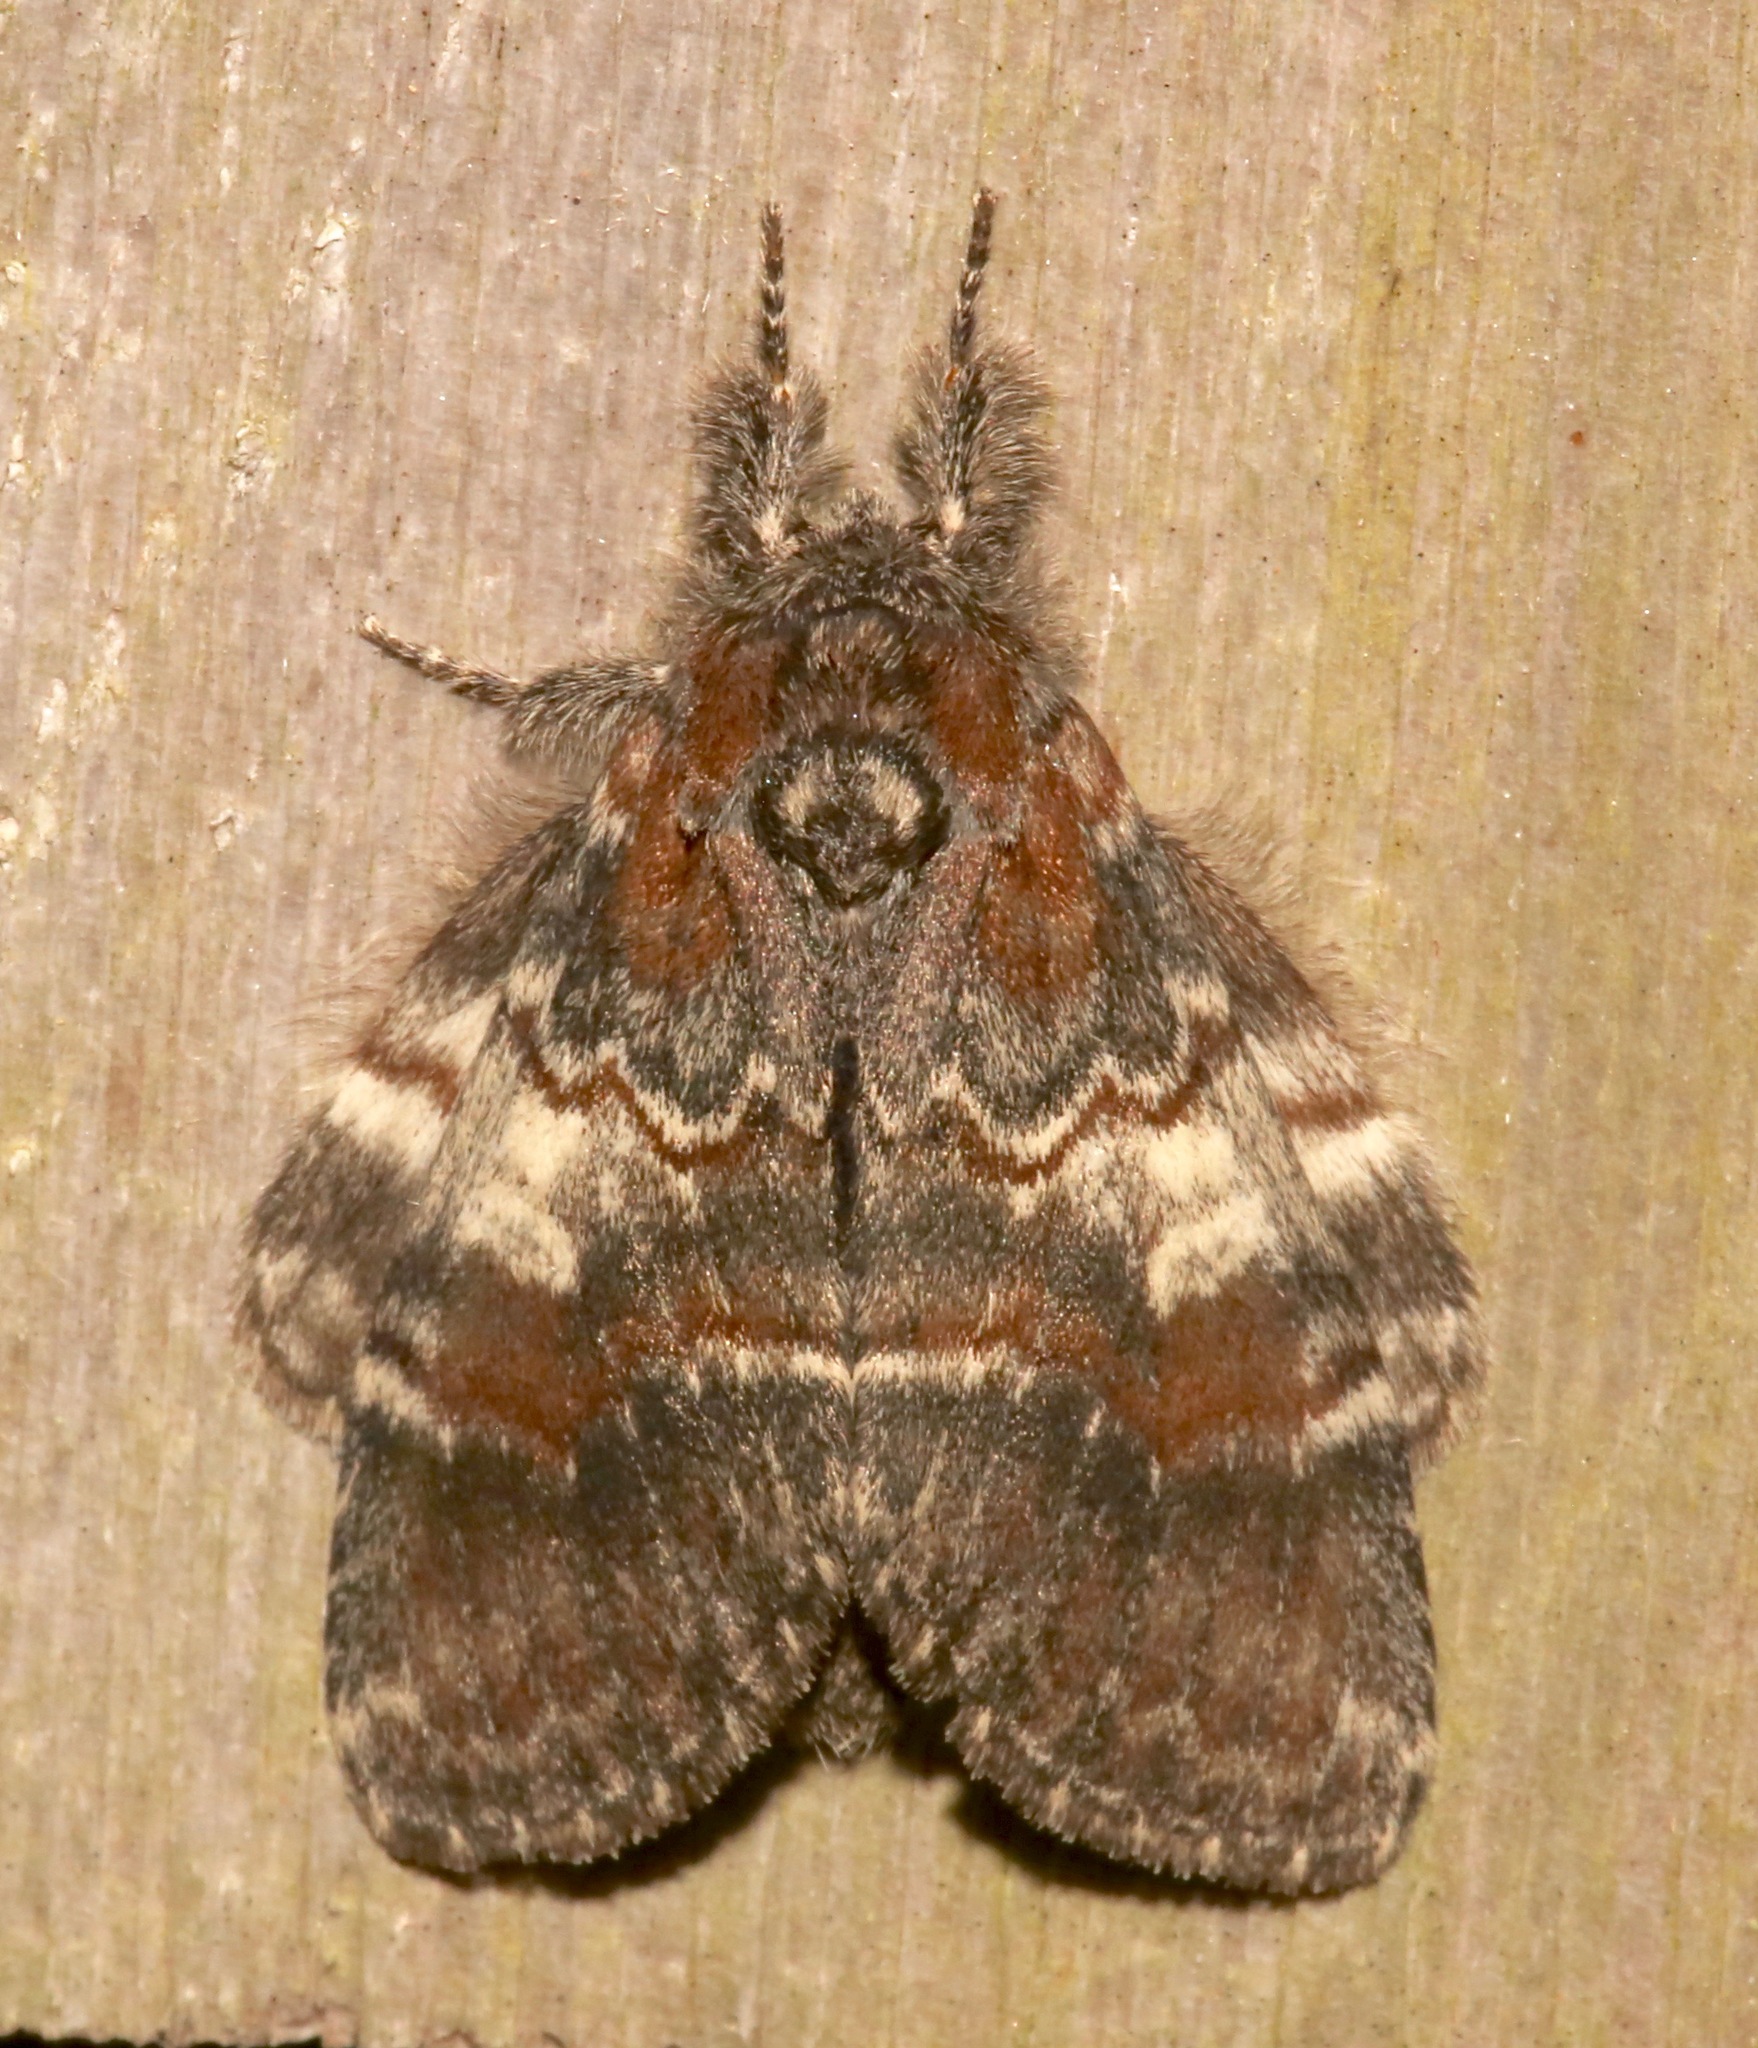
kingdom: Animalia
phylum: Arthropoda
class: Insecta
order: Lepidoptera
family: Notodontidae
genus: Peridea
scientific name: Peridea ferruginea
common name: Chocolate prominent
